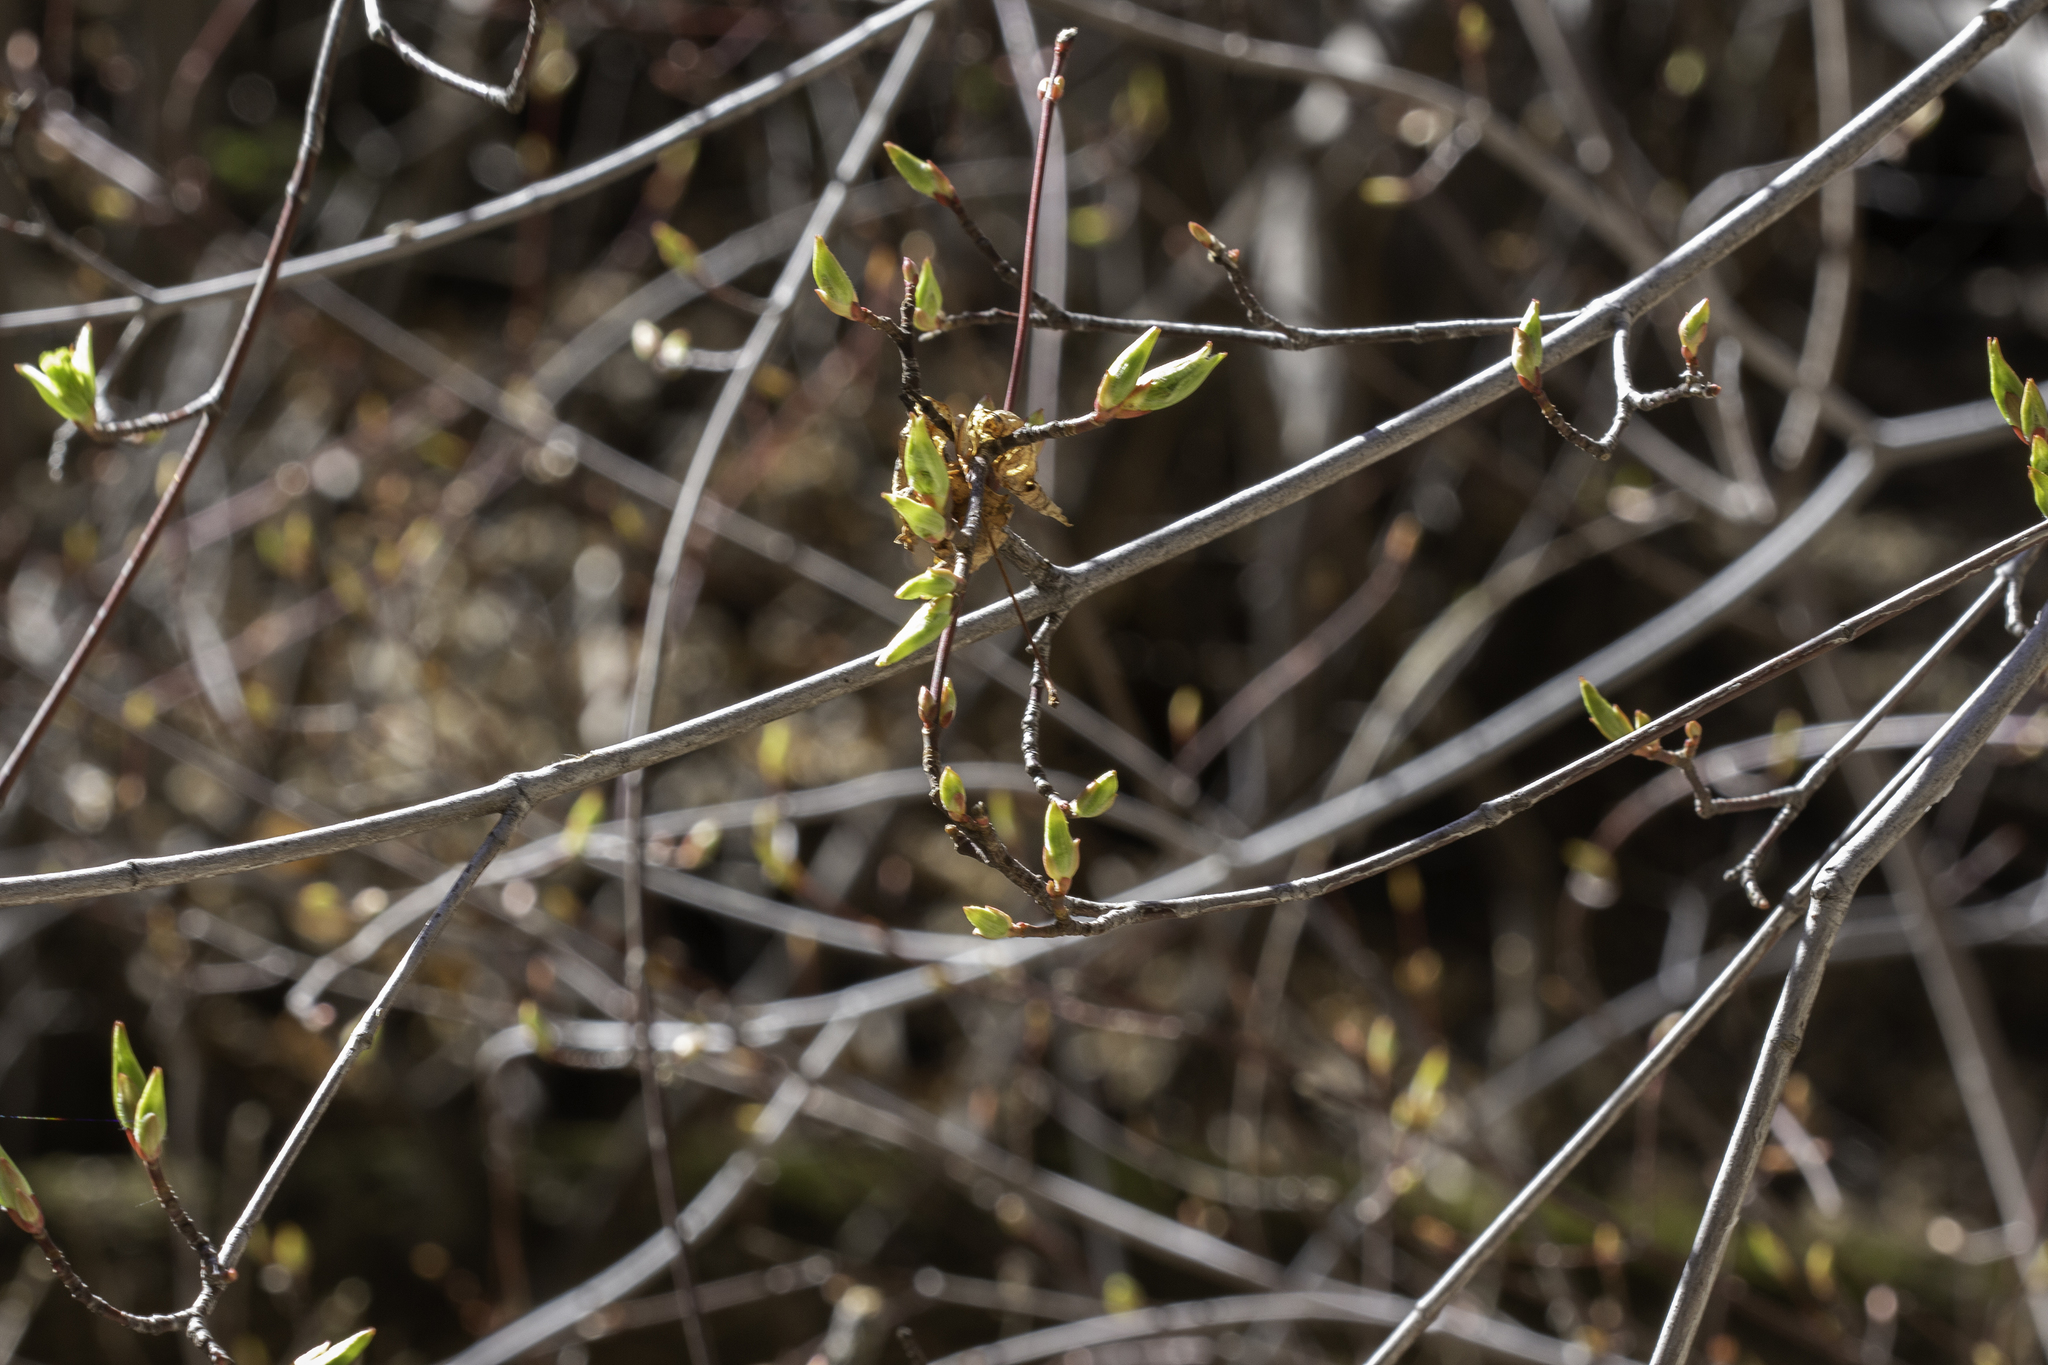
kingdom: Plantae
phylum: Tracheophyta
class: Magnoliopsida
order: Sapindales
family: Sapindaceae
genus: Acer
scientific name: Acer glabrum
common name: Rocky mountain maple
